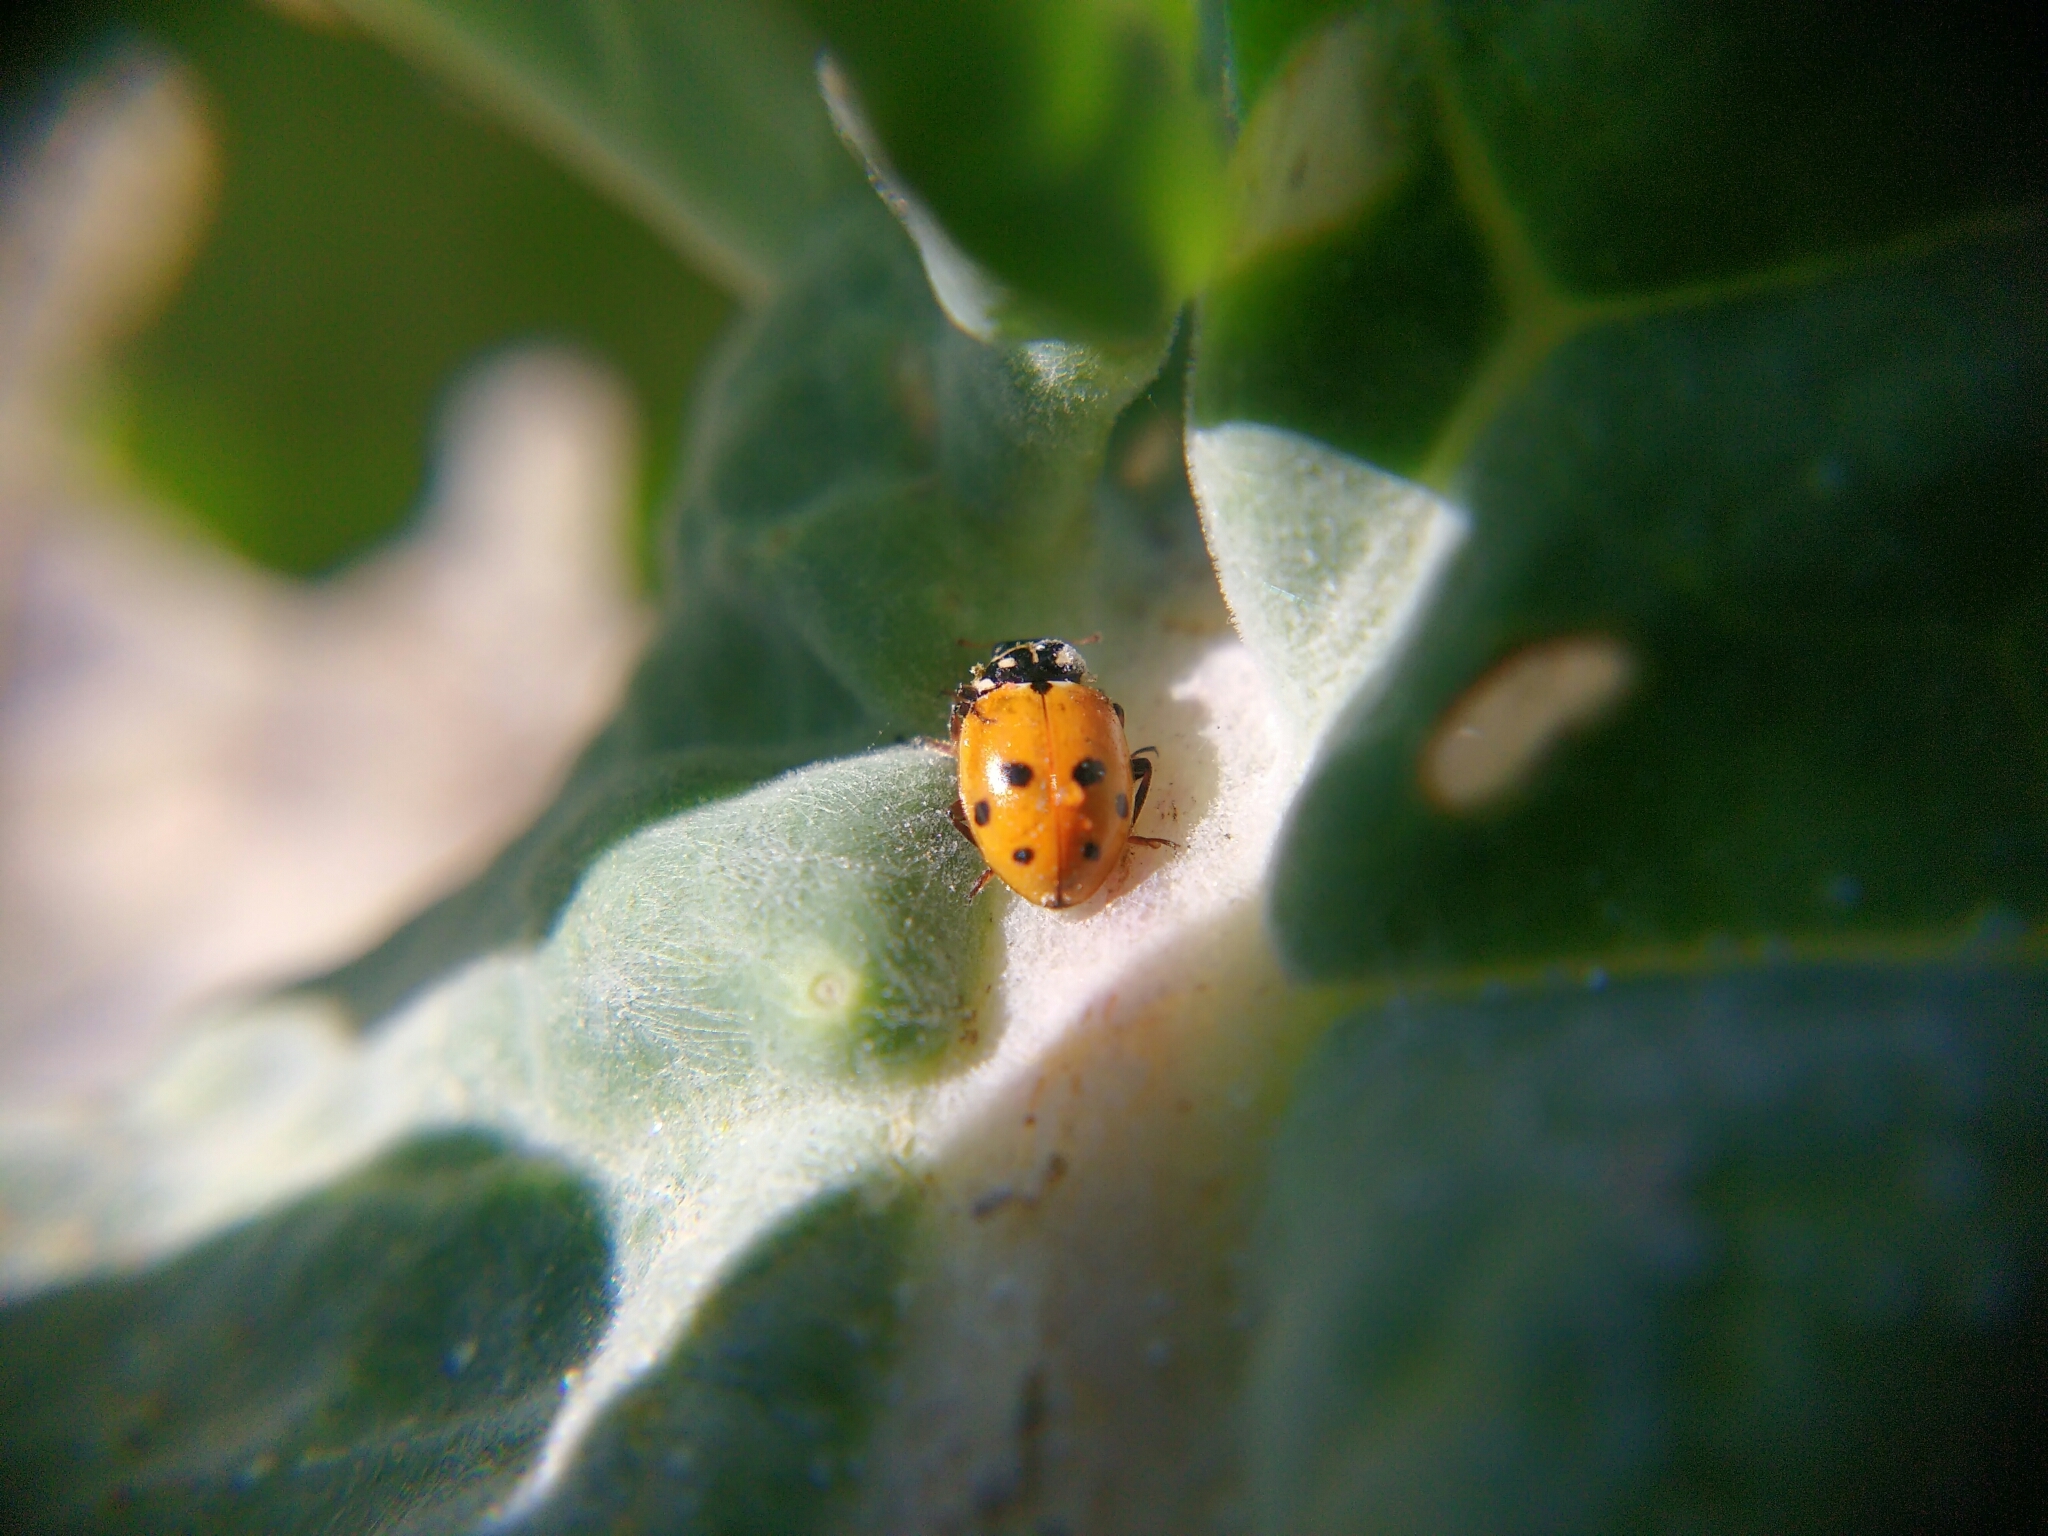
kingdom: Animalia
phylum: Arthropoda
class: Insecta
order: Coleoptera
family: Coccinellidae
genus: Hippodamia
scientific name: Hippodamia variegata
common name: Ladybird beetle
